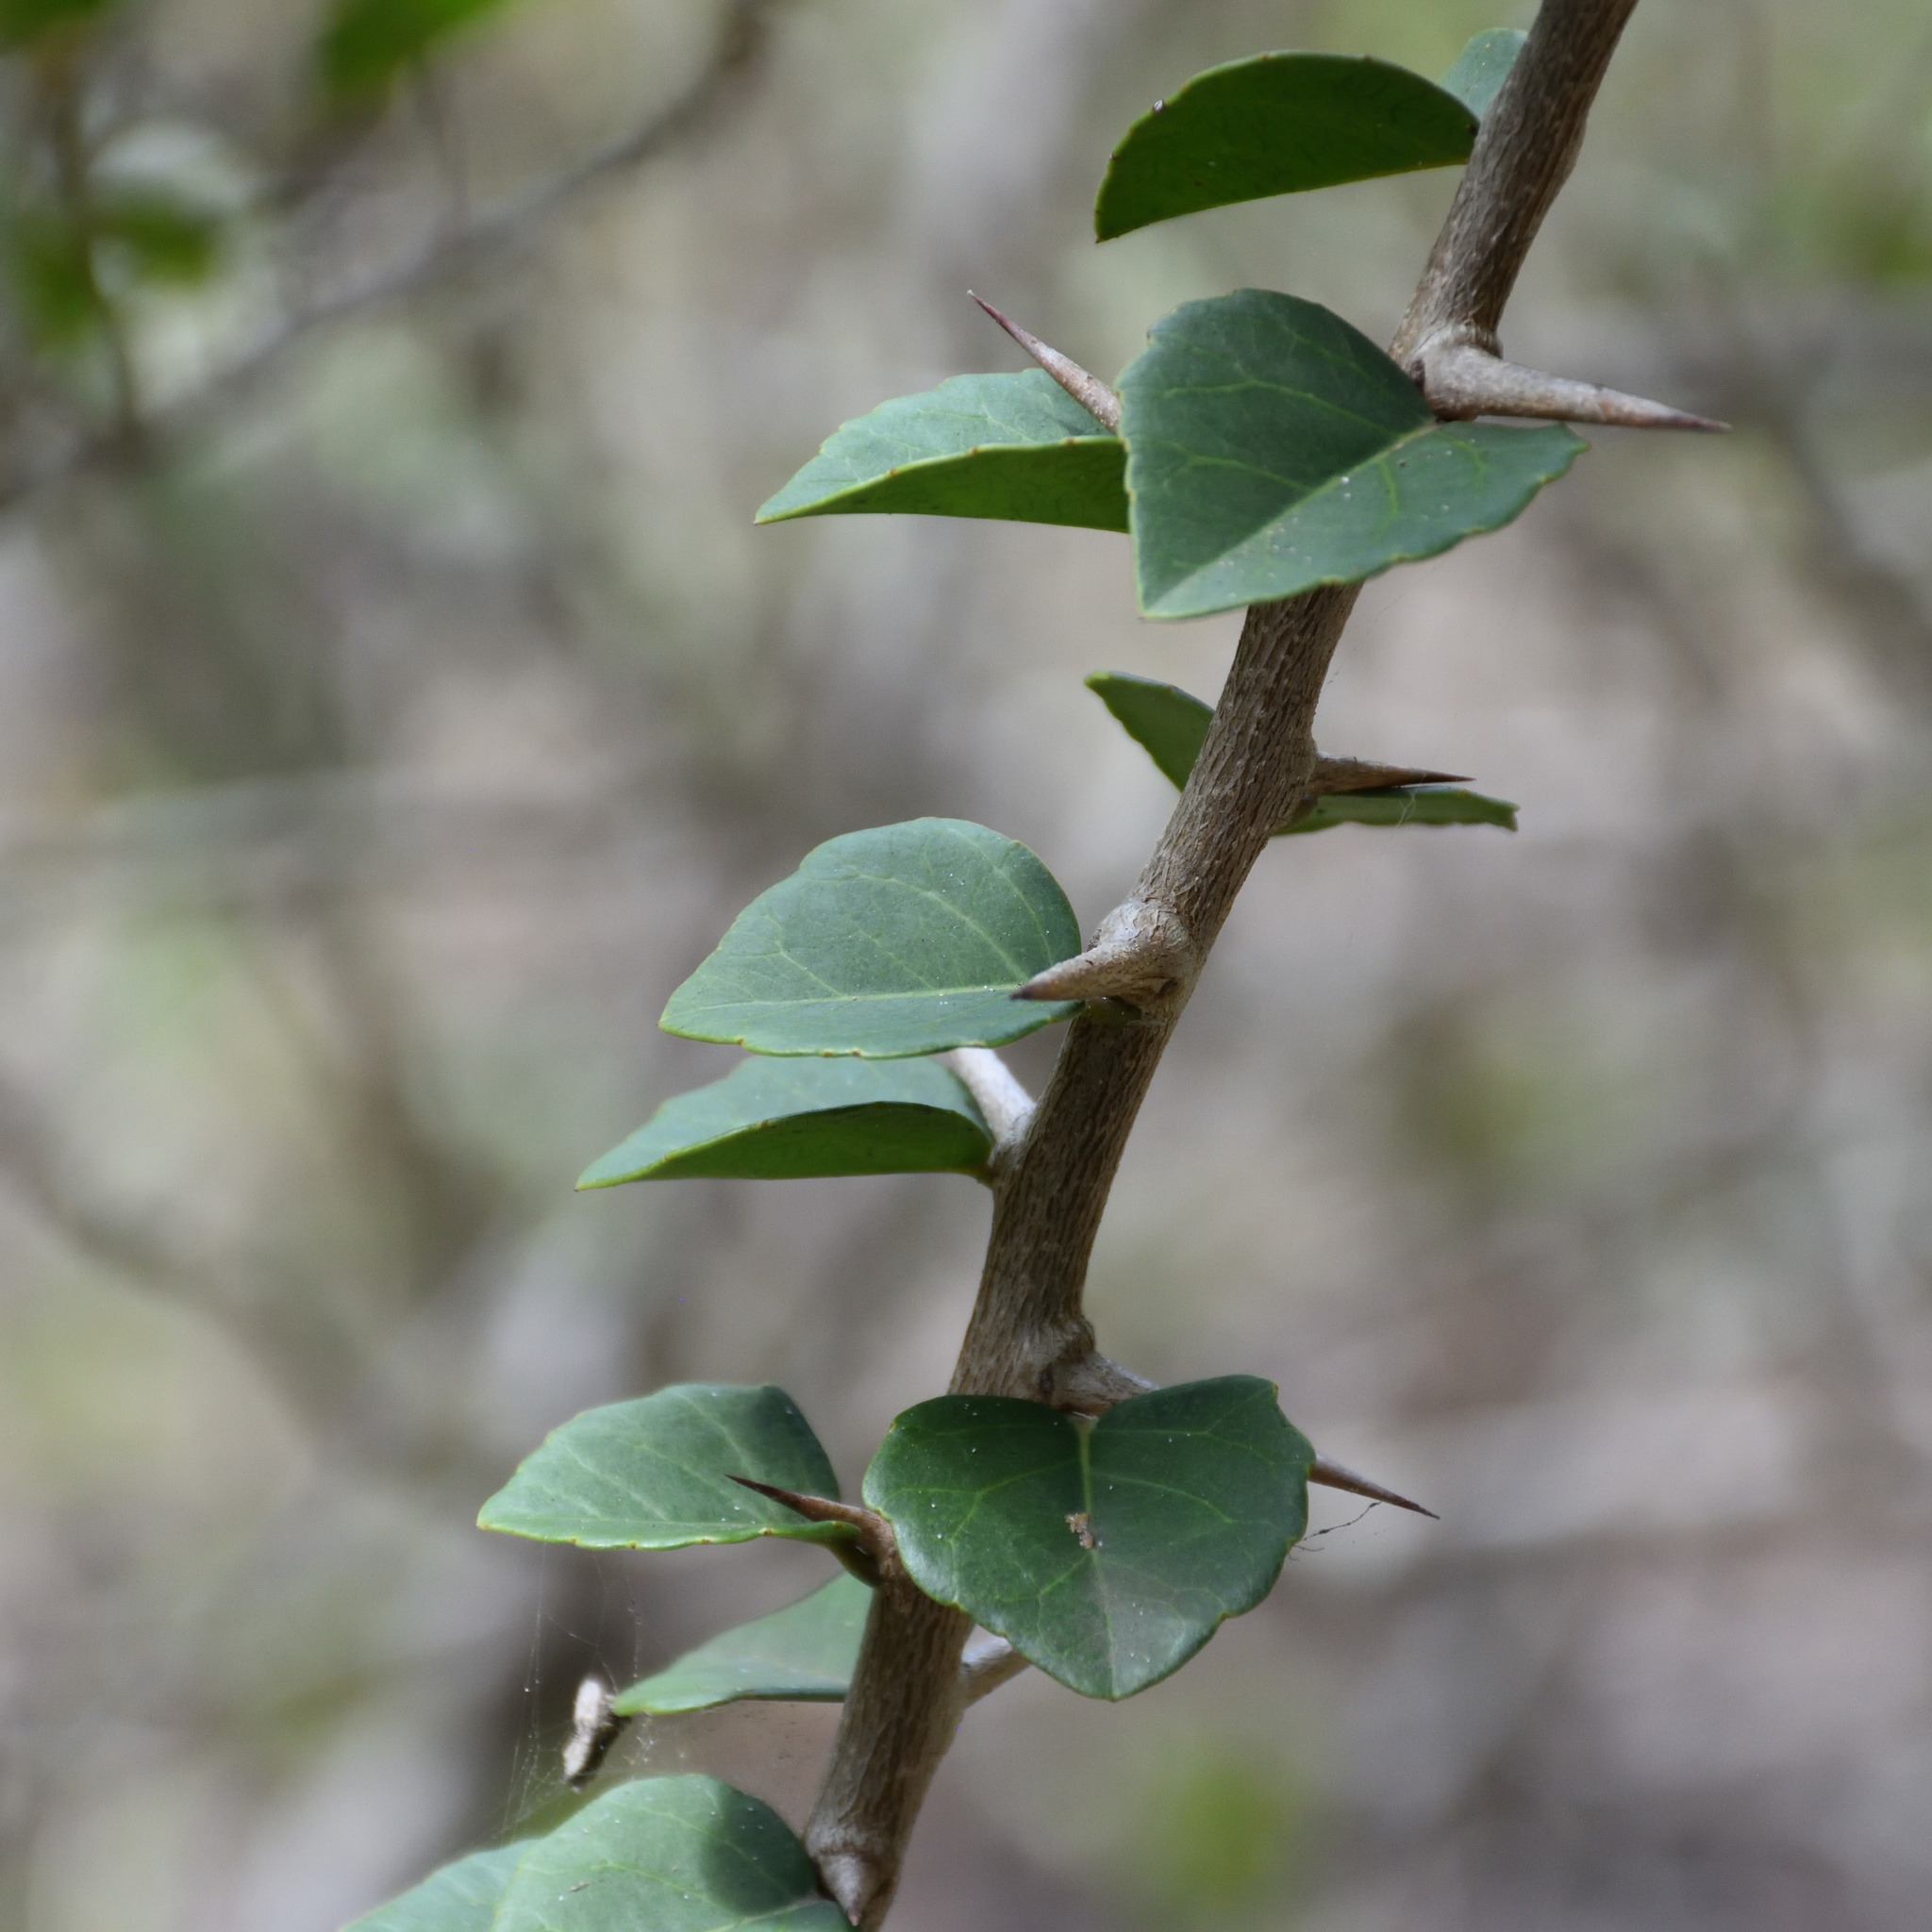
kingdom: Plantae
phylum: Tracheophyta
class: Magnoliopsida
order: Malpighiales
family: Salicaceae
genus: Scolopia
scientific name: Scolopia zeyheri
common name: Thorn pear
